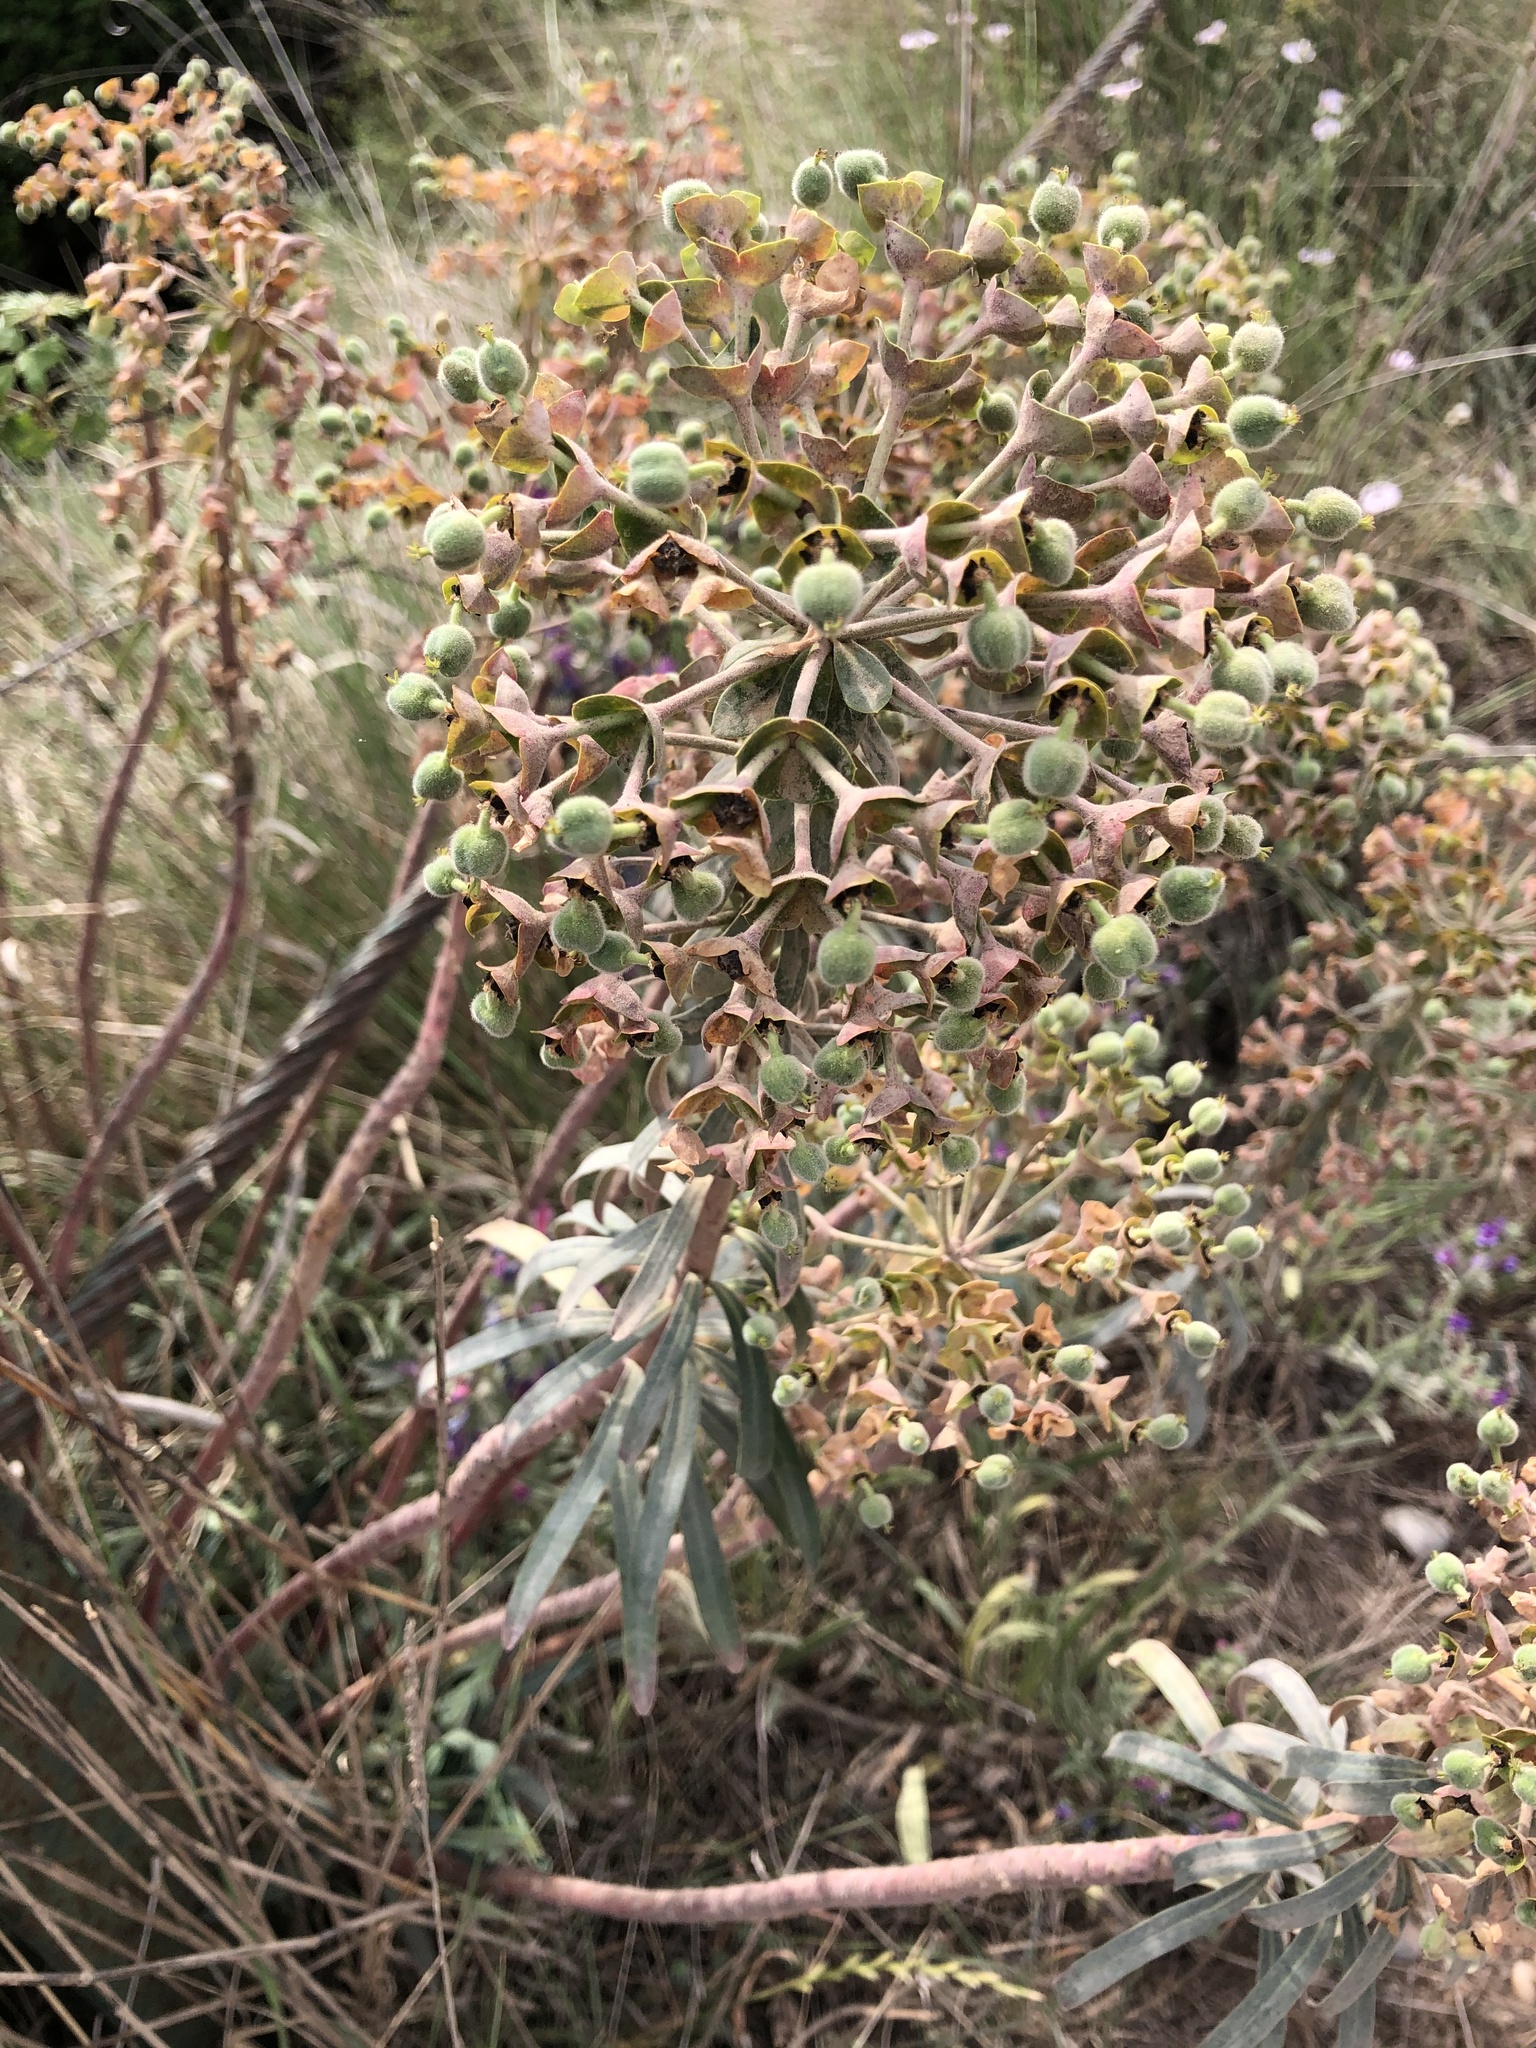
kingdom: Plantae
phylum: Tracheophyta
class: Magnoliopsida
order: Malpighiales
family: Euphorbiaceae
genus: Euphorbia
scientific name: Euphorbia characias
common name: Mediterranean spurge
